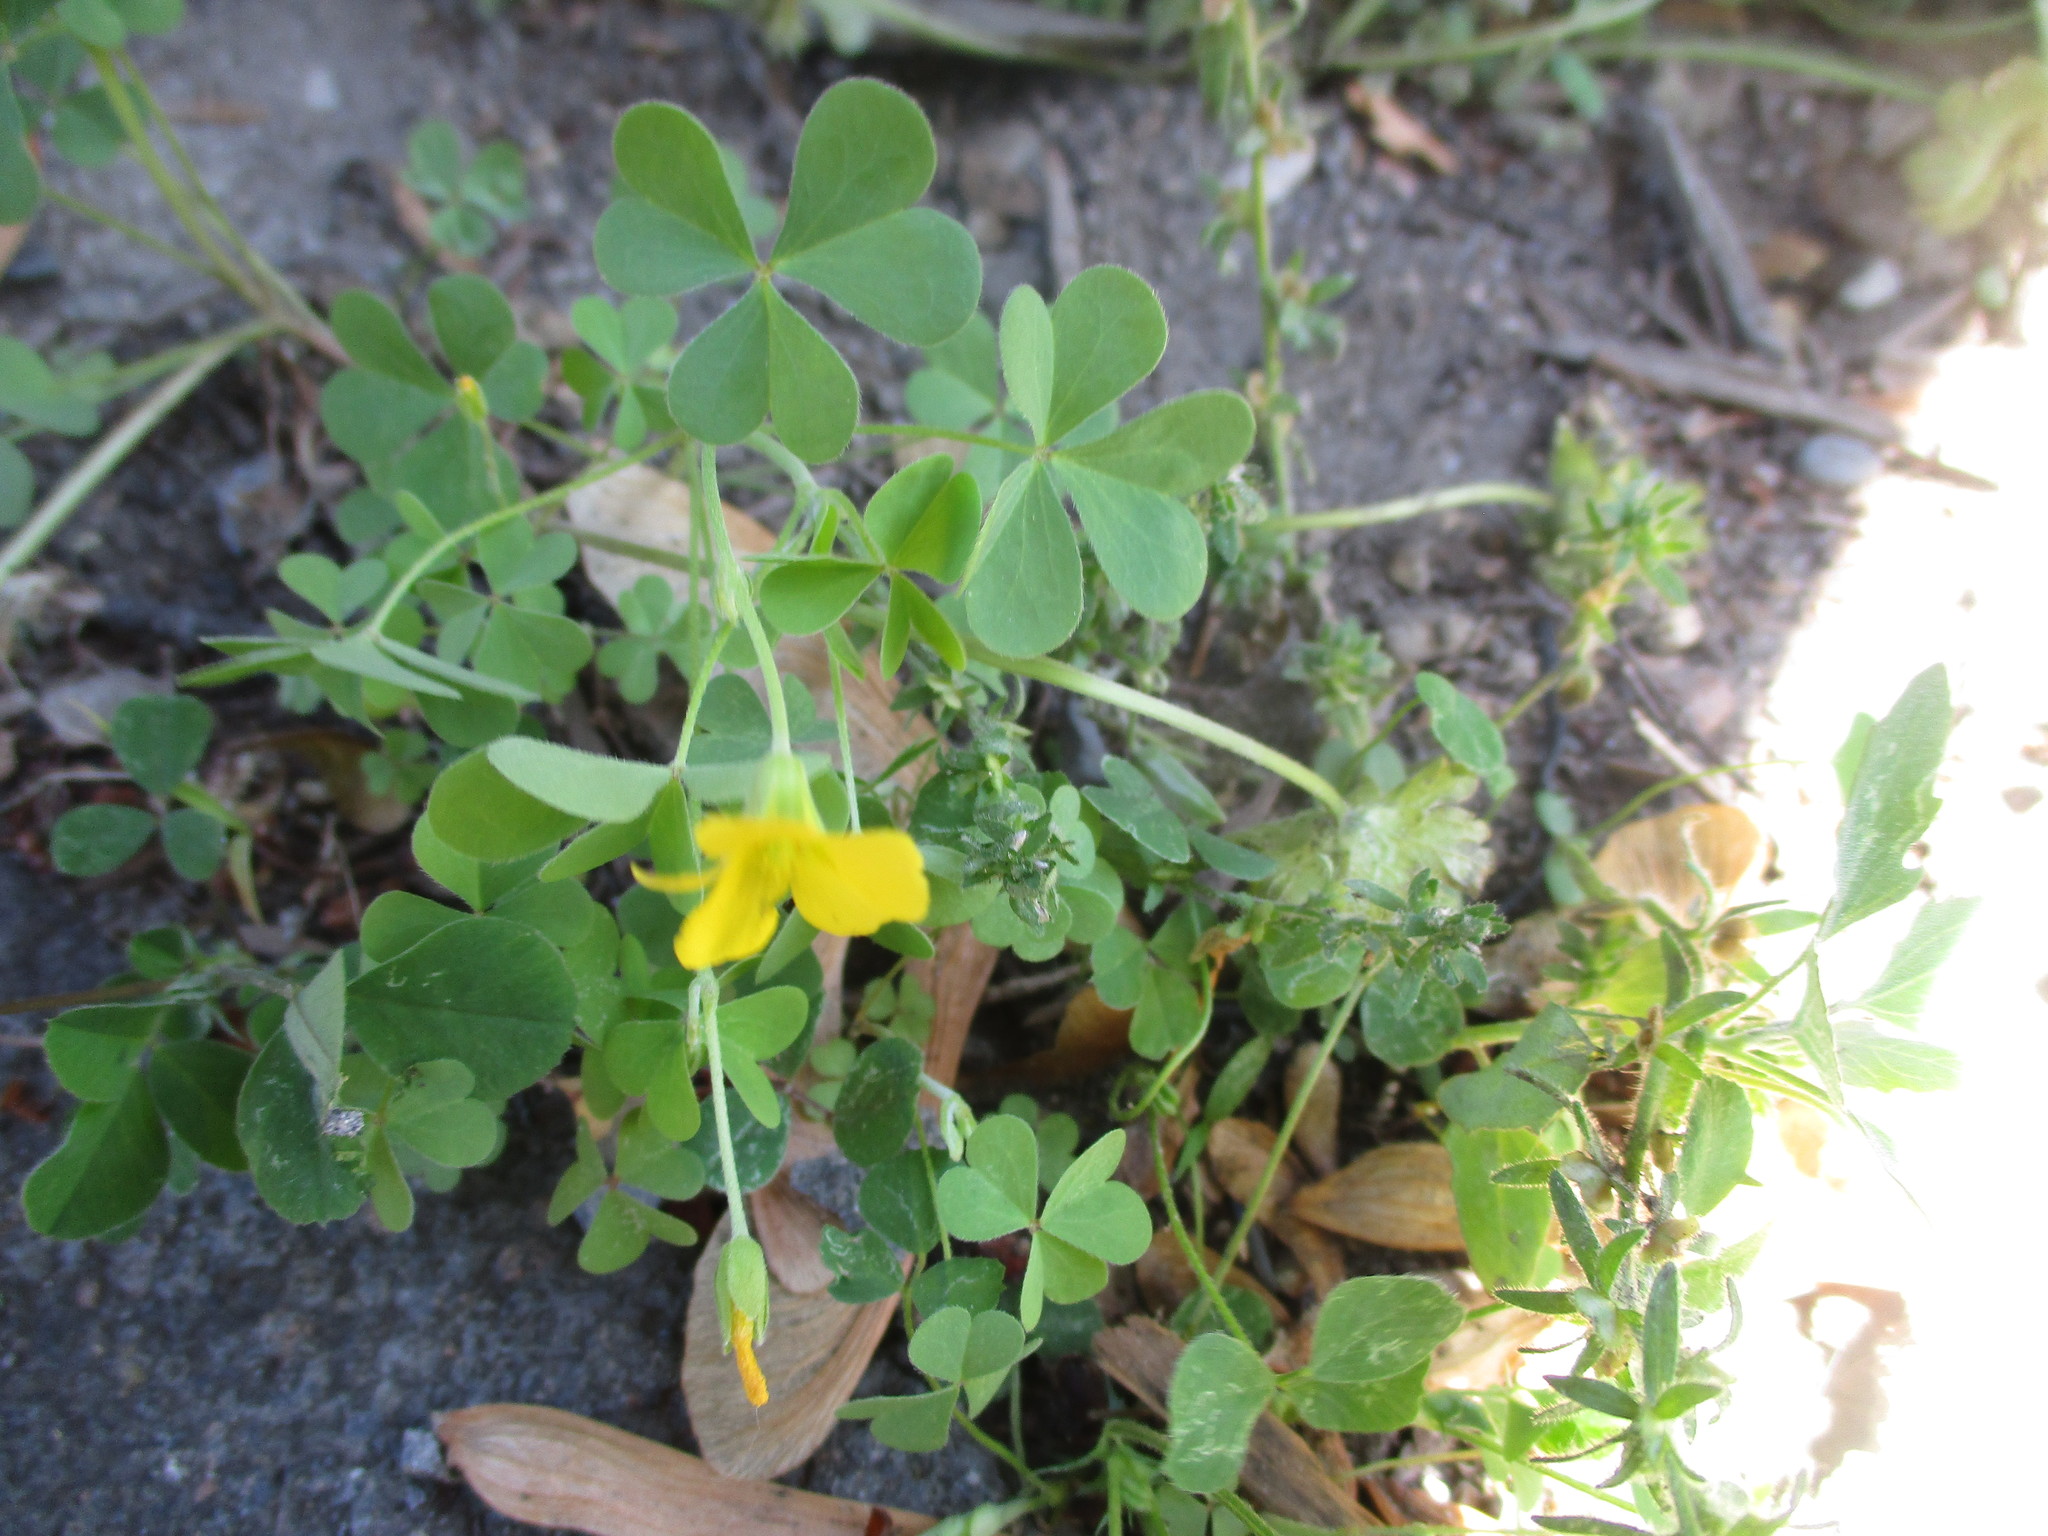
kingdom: Plantae
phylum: Tracheophyta
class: Magnoliopsida
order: Oxalidales
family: Oxalidaceae
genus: Oxalis
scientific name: Oxalis stricta
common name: Upright yellow-sorrel
